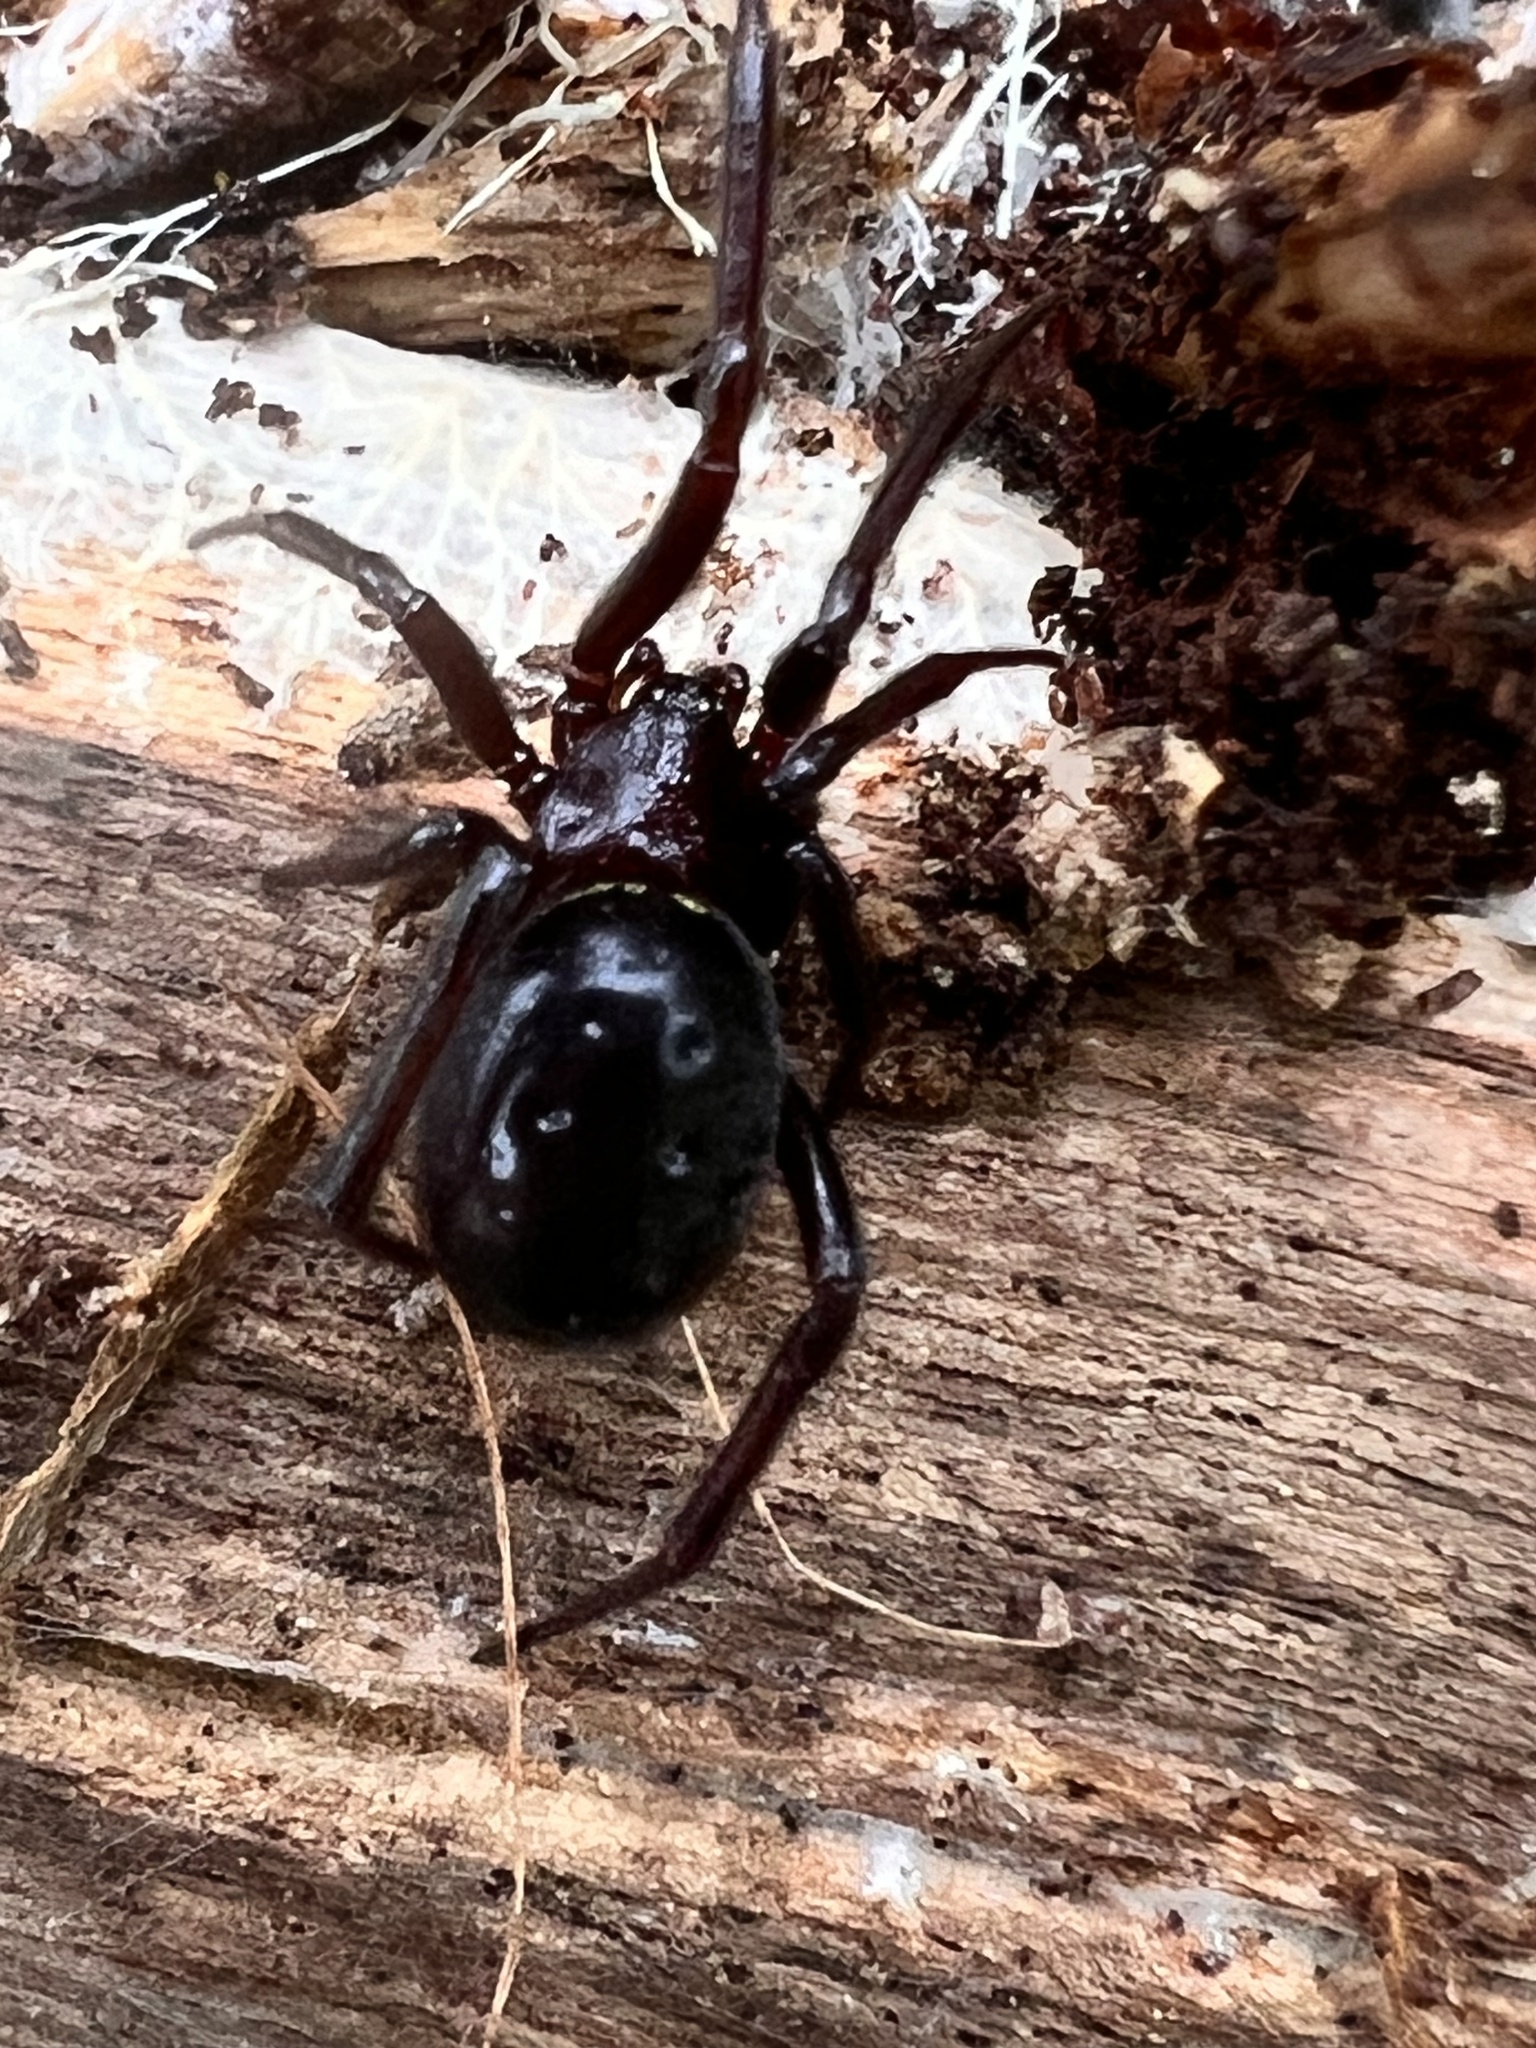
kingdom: Animalia
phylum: Arthropoda
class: Arachnida
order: Araneae
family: Theridiidae
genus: Steatoda
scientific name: Steatoda capensis
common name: Cobweb weaver
